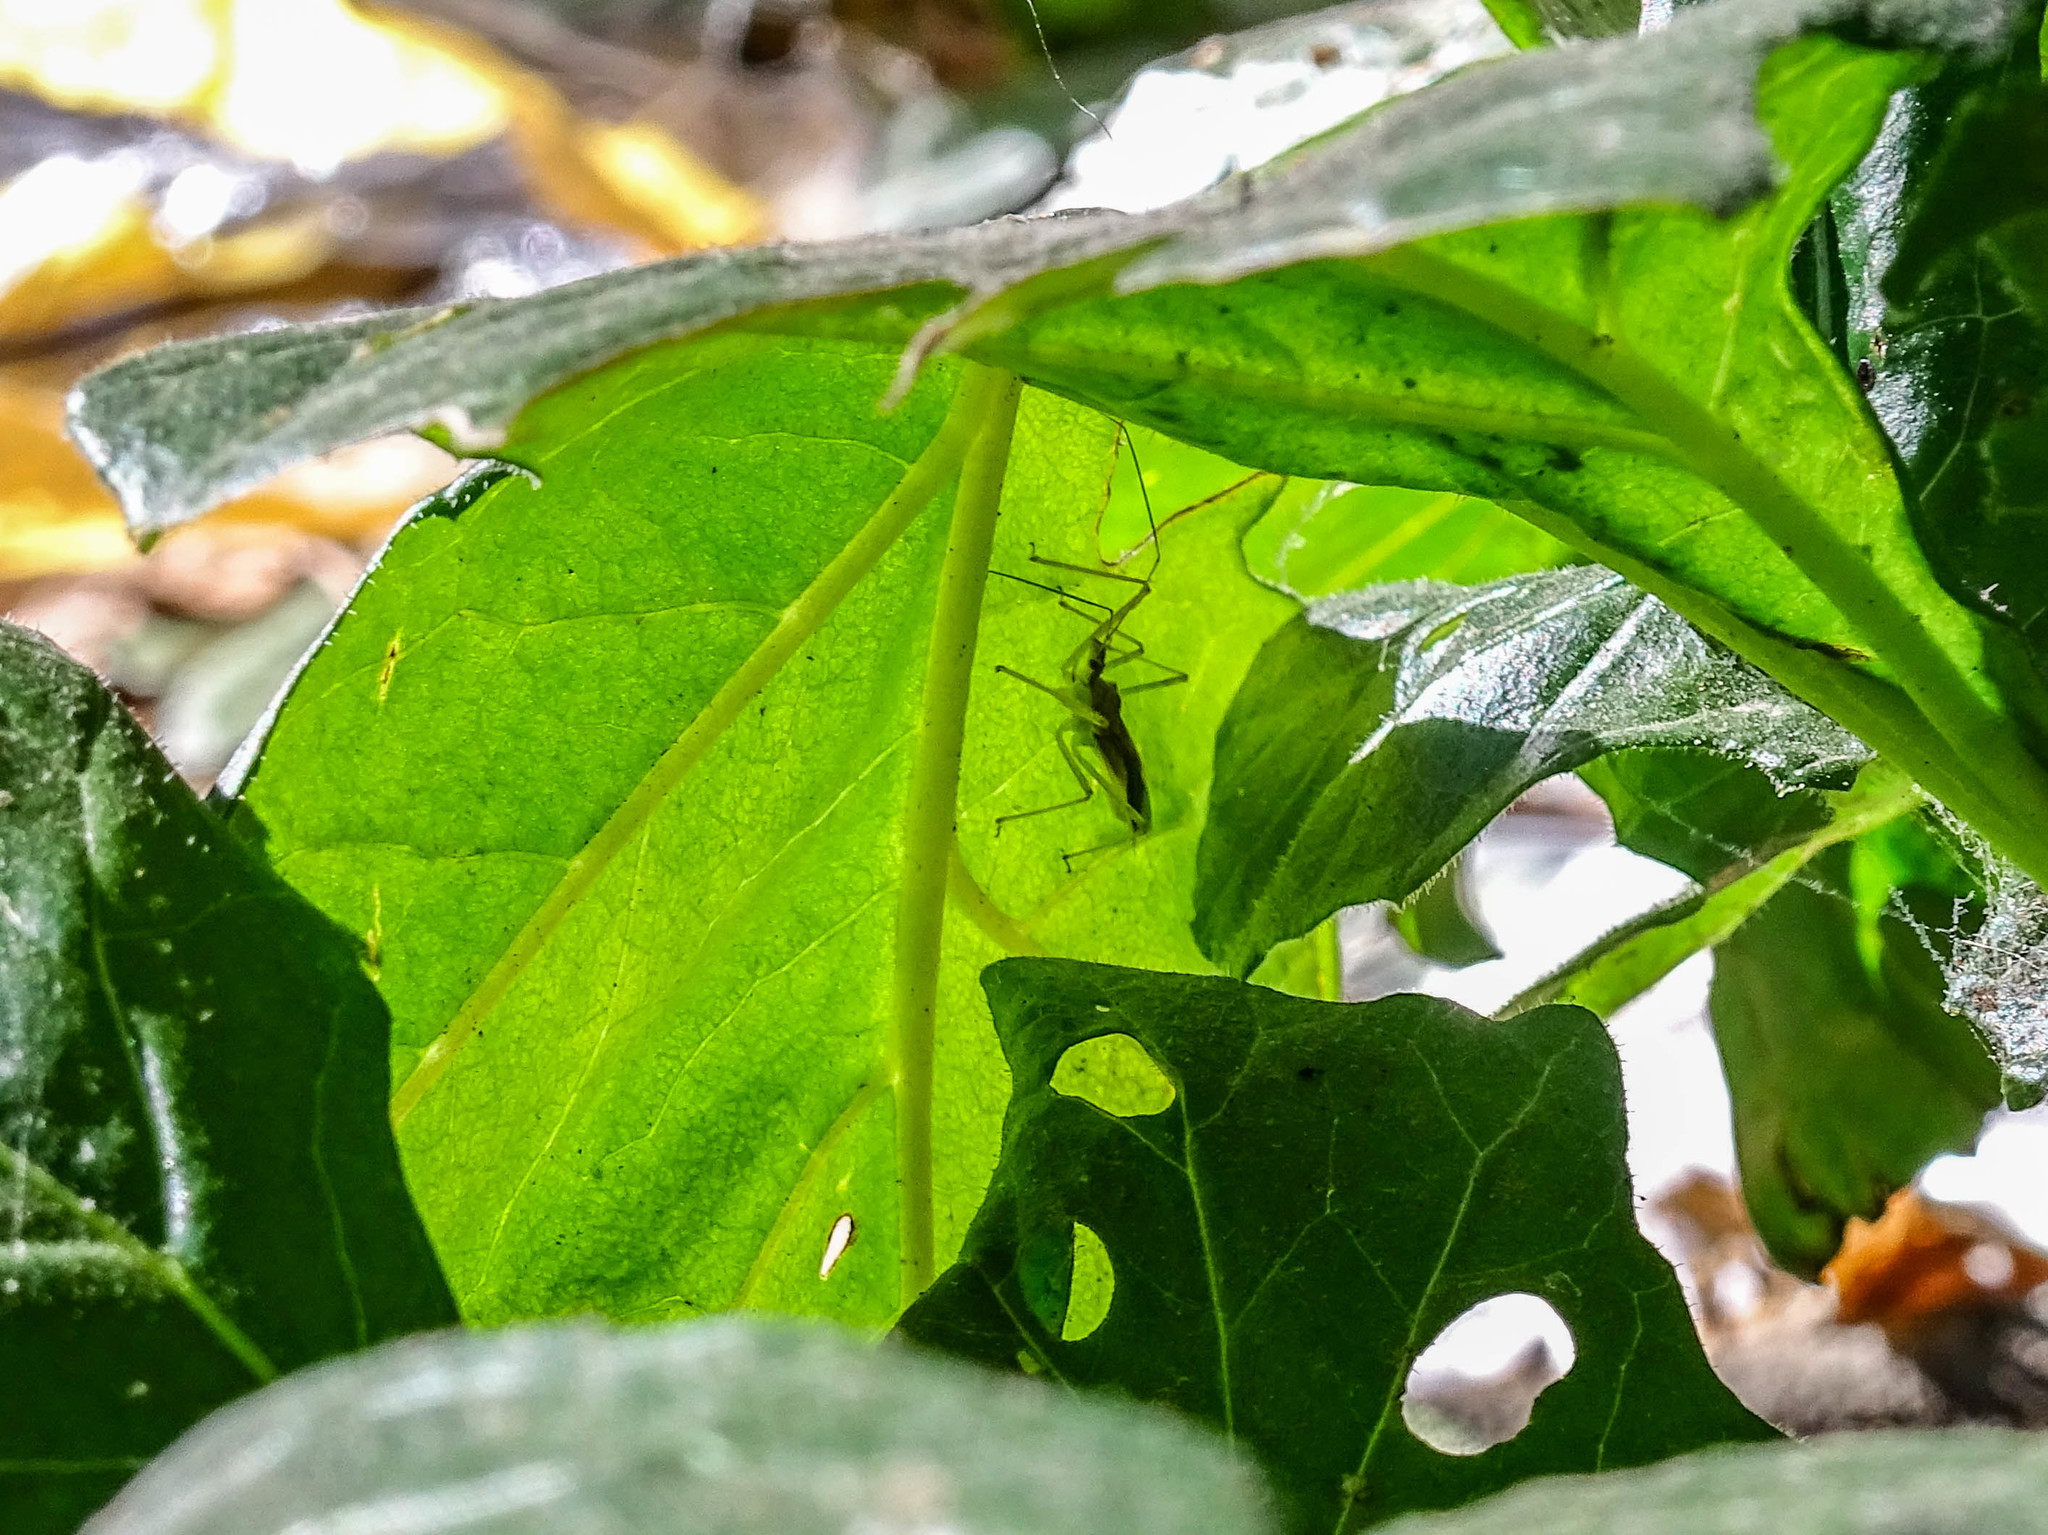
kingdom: Animalia
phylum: Arthropoda
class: Insecta
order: Hemiptera
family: Reduviidae
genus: Zelus
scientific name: Zelus renardii
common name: Assassin bug
